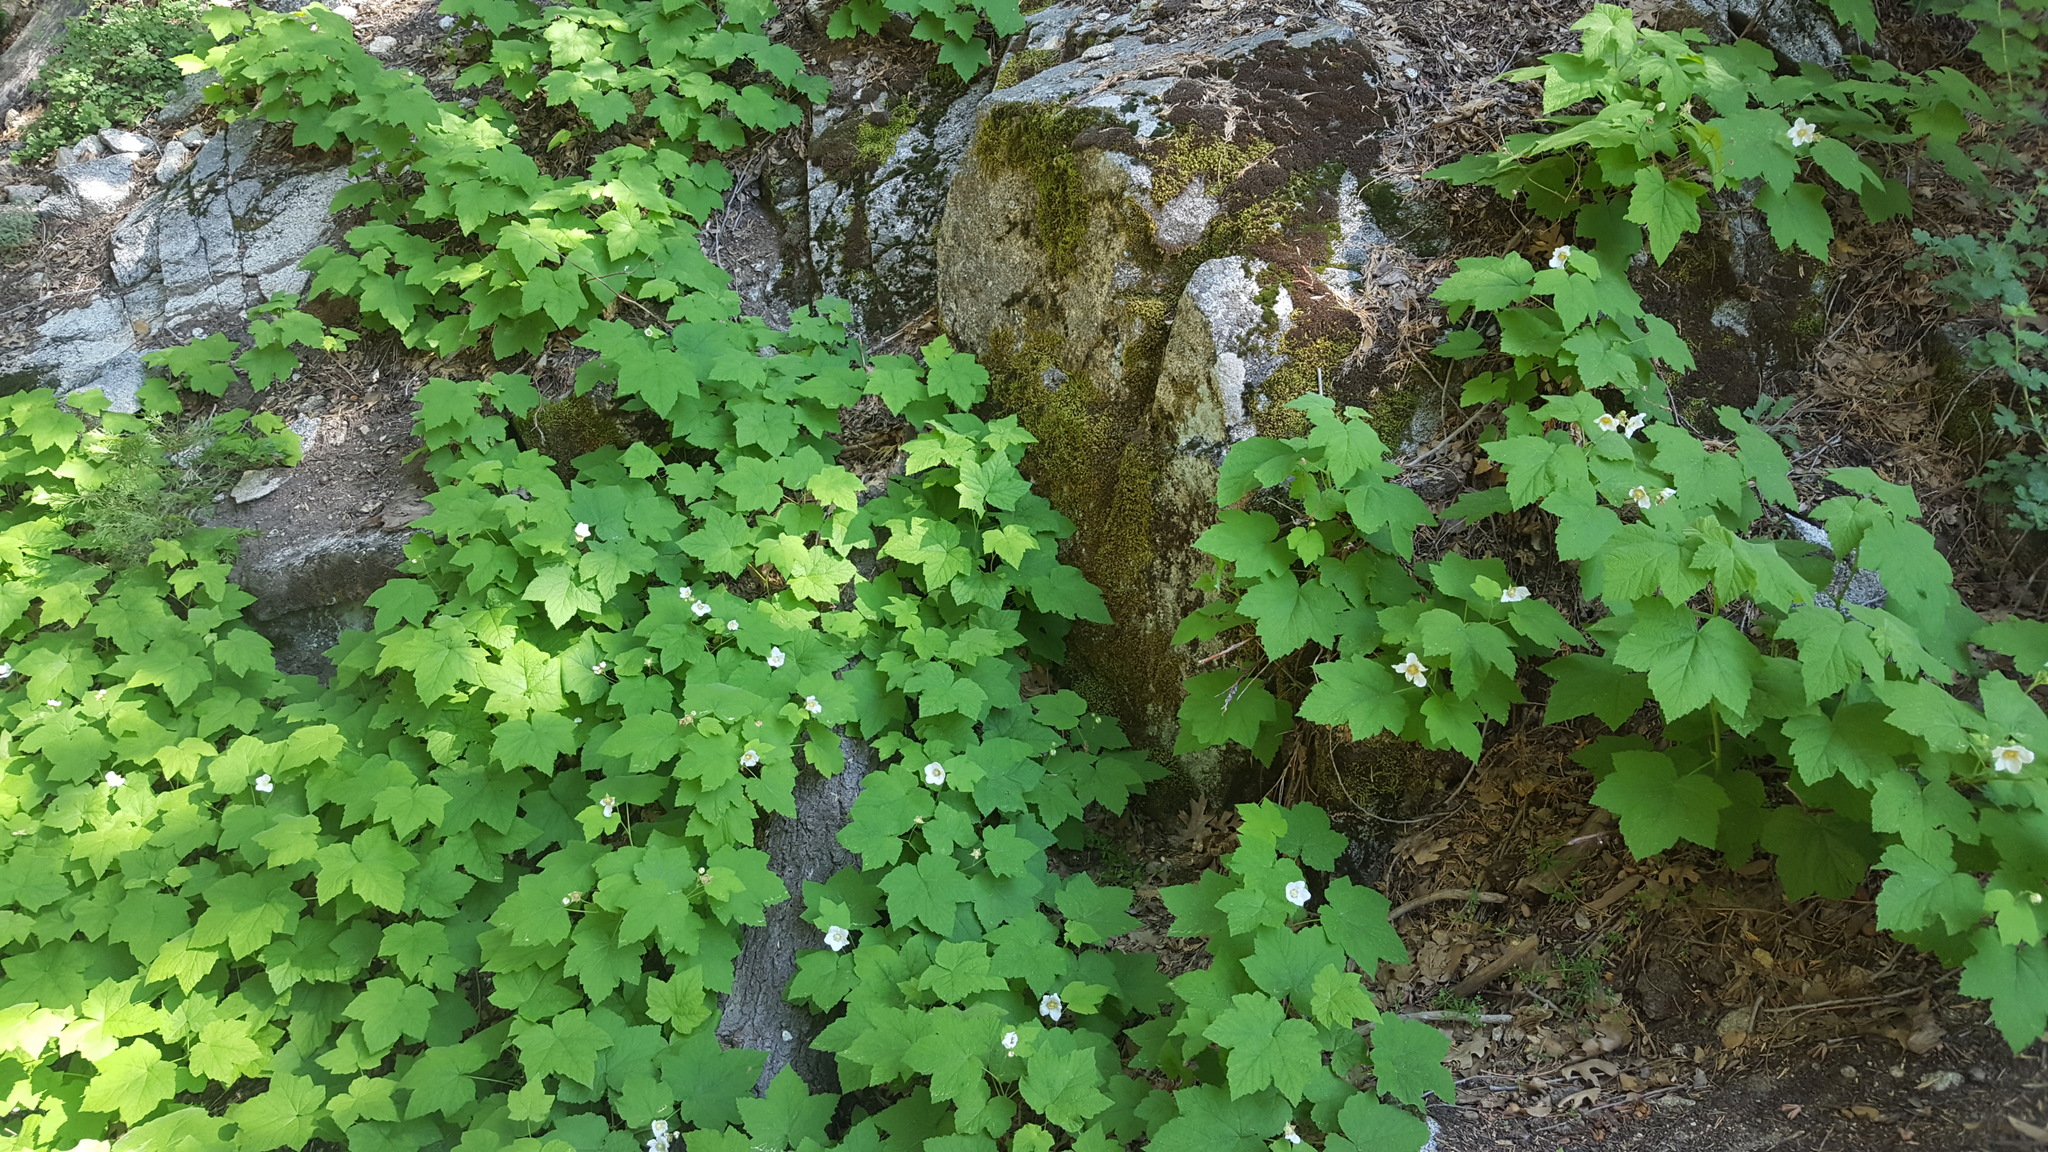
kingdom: Plantae
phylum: Tracheophyta
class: Magnoliopsida
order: Rosales
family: Rosaceae
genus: Rubus
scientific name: Rubus parviflorus
